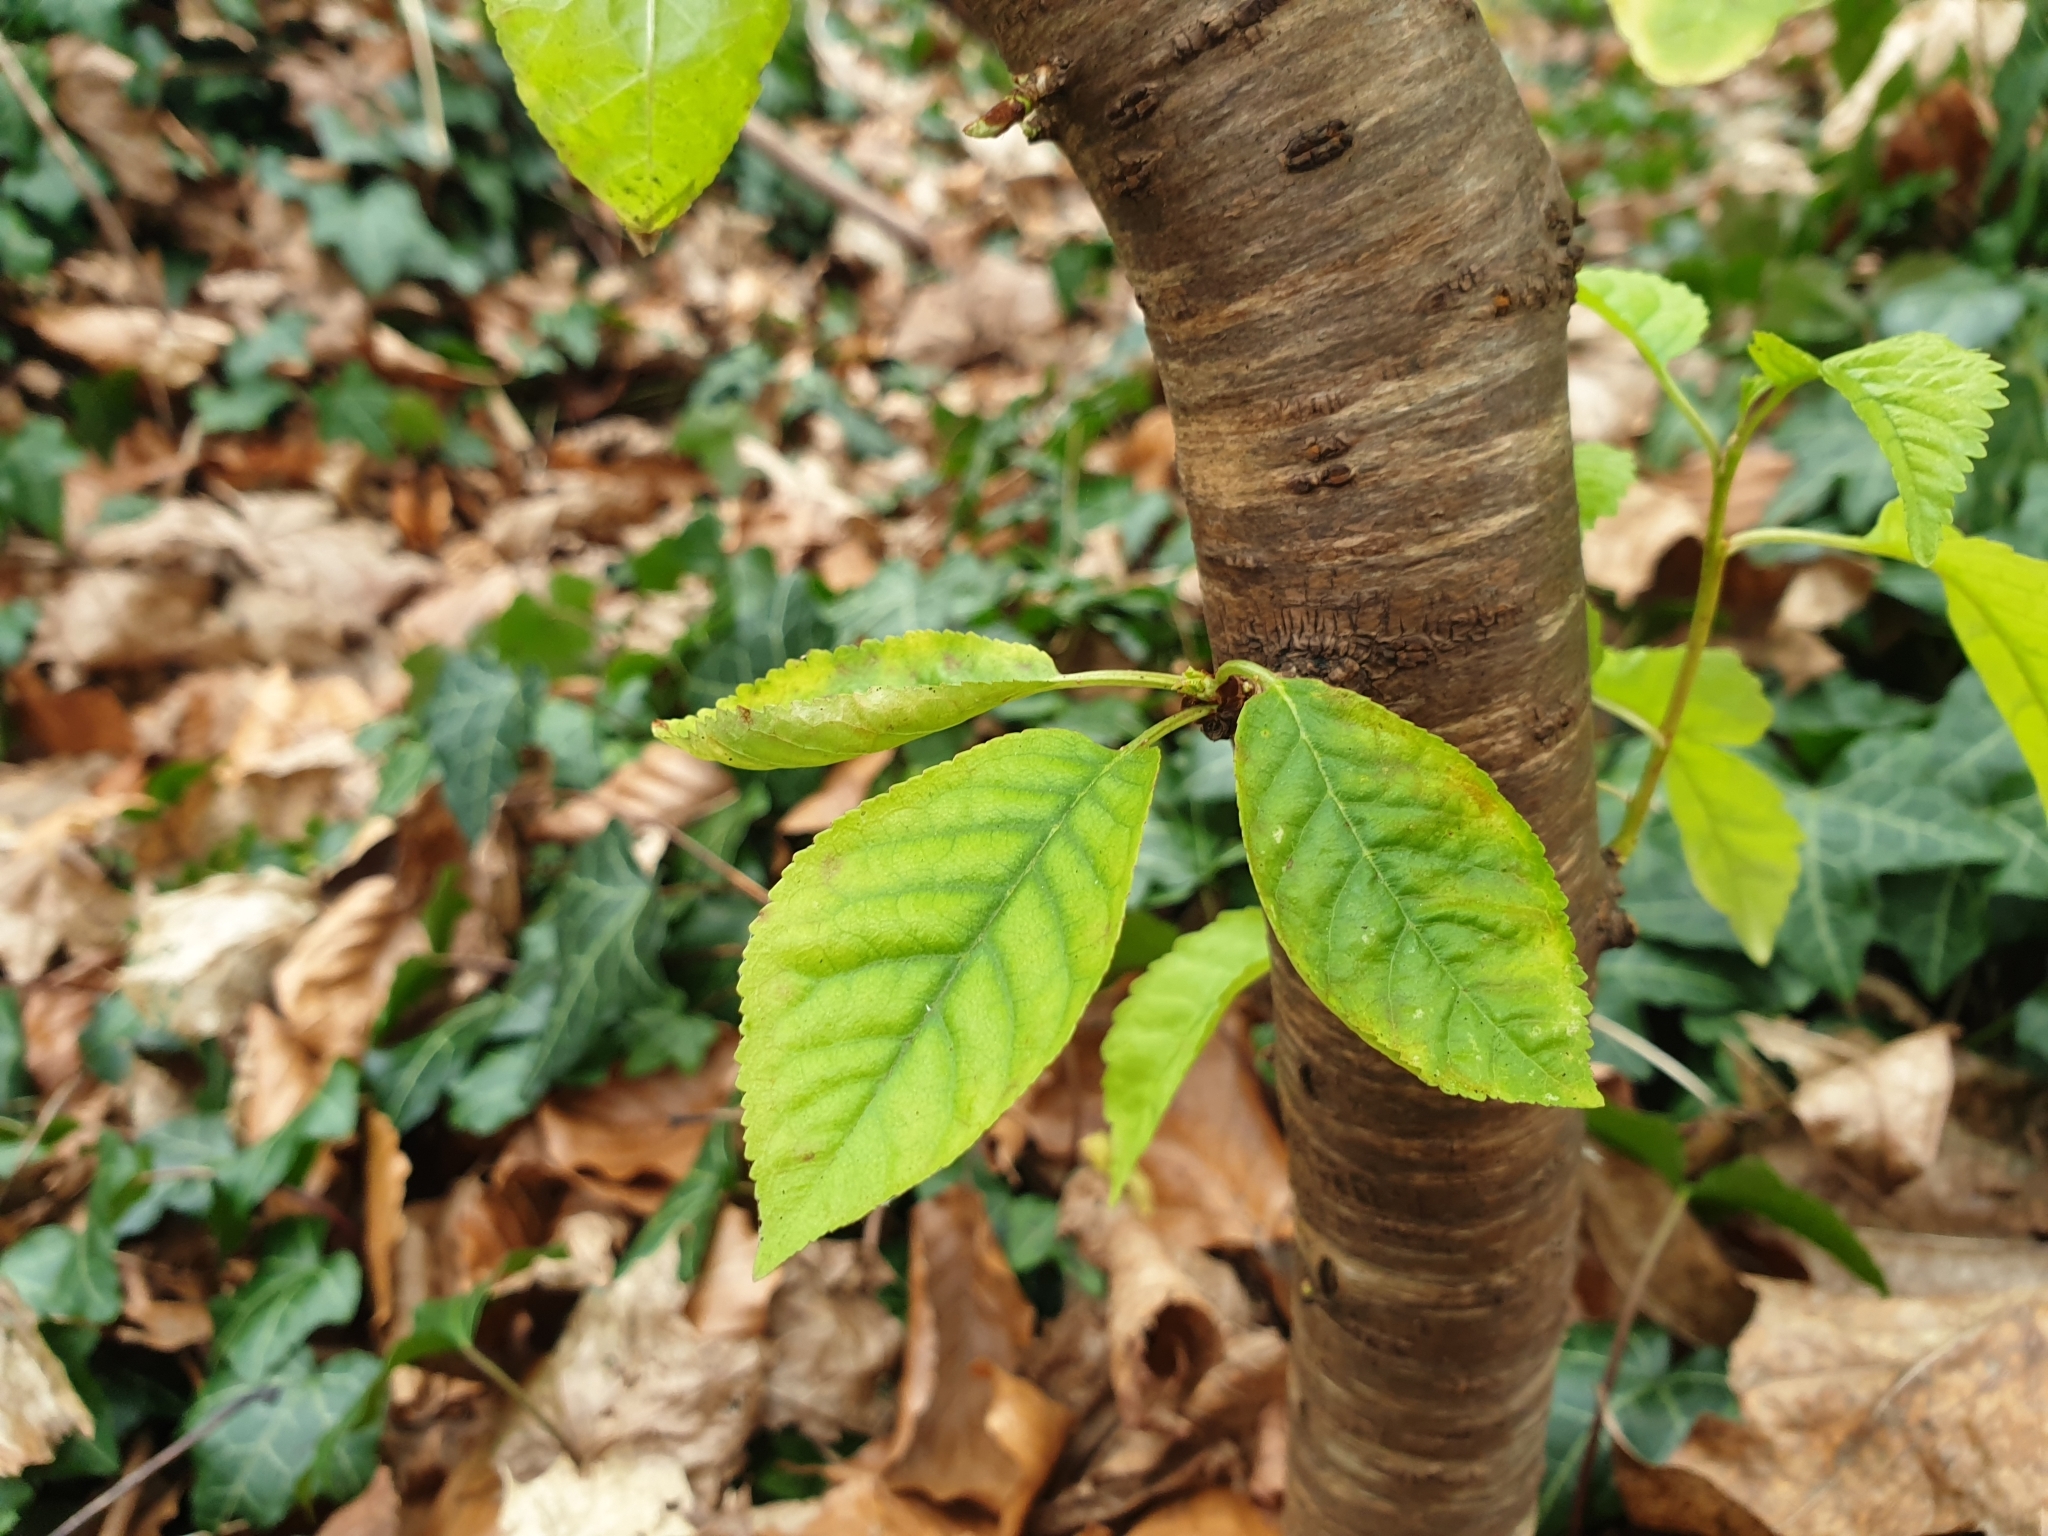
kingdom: Plantae
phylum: Tracheophyta
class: Magnoliopsida
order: Rosales
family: Rosaceae
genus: Prunus
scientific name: Prunus avium
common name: Sweet cherry
